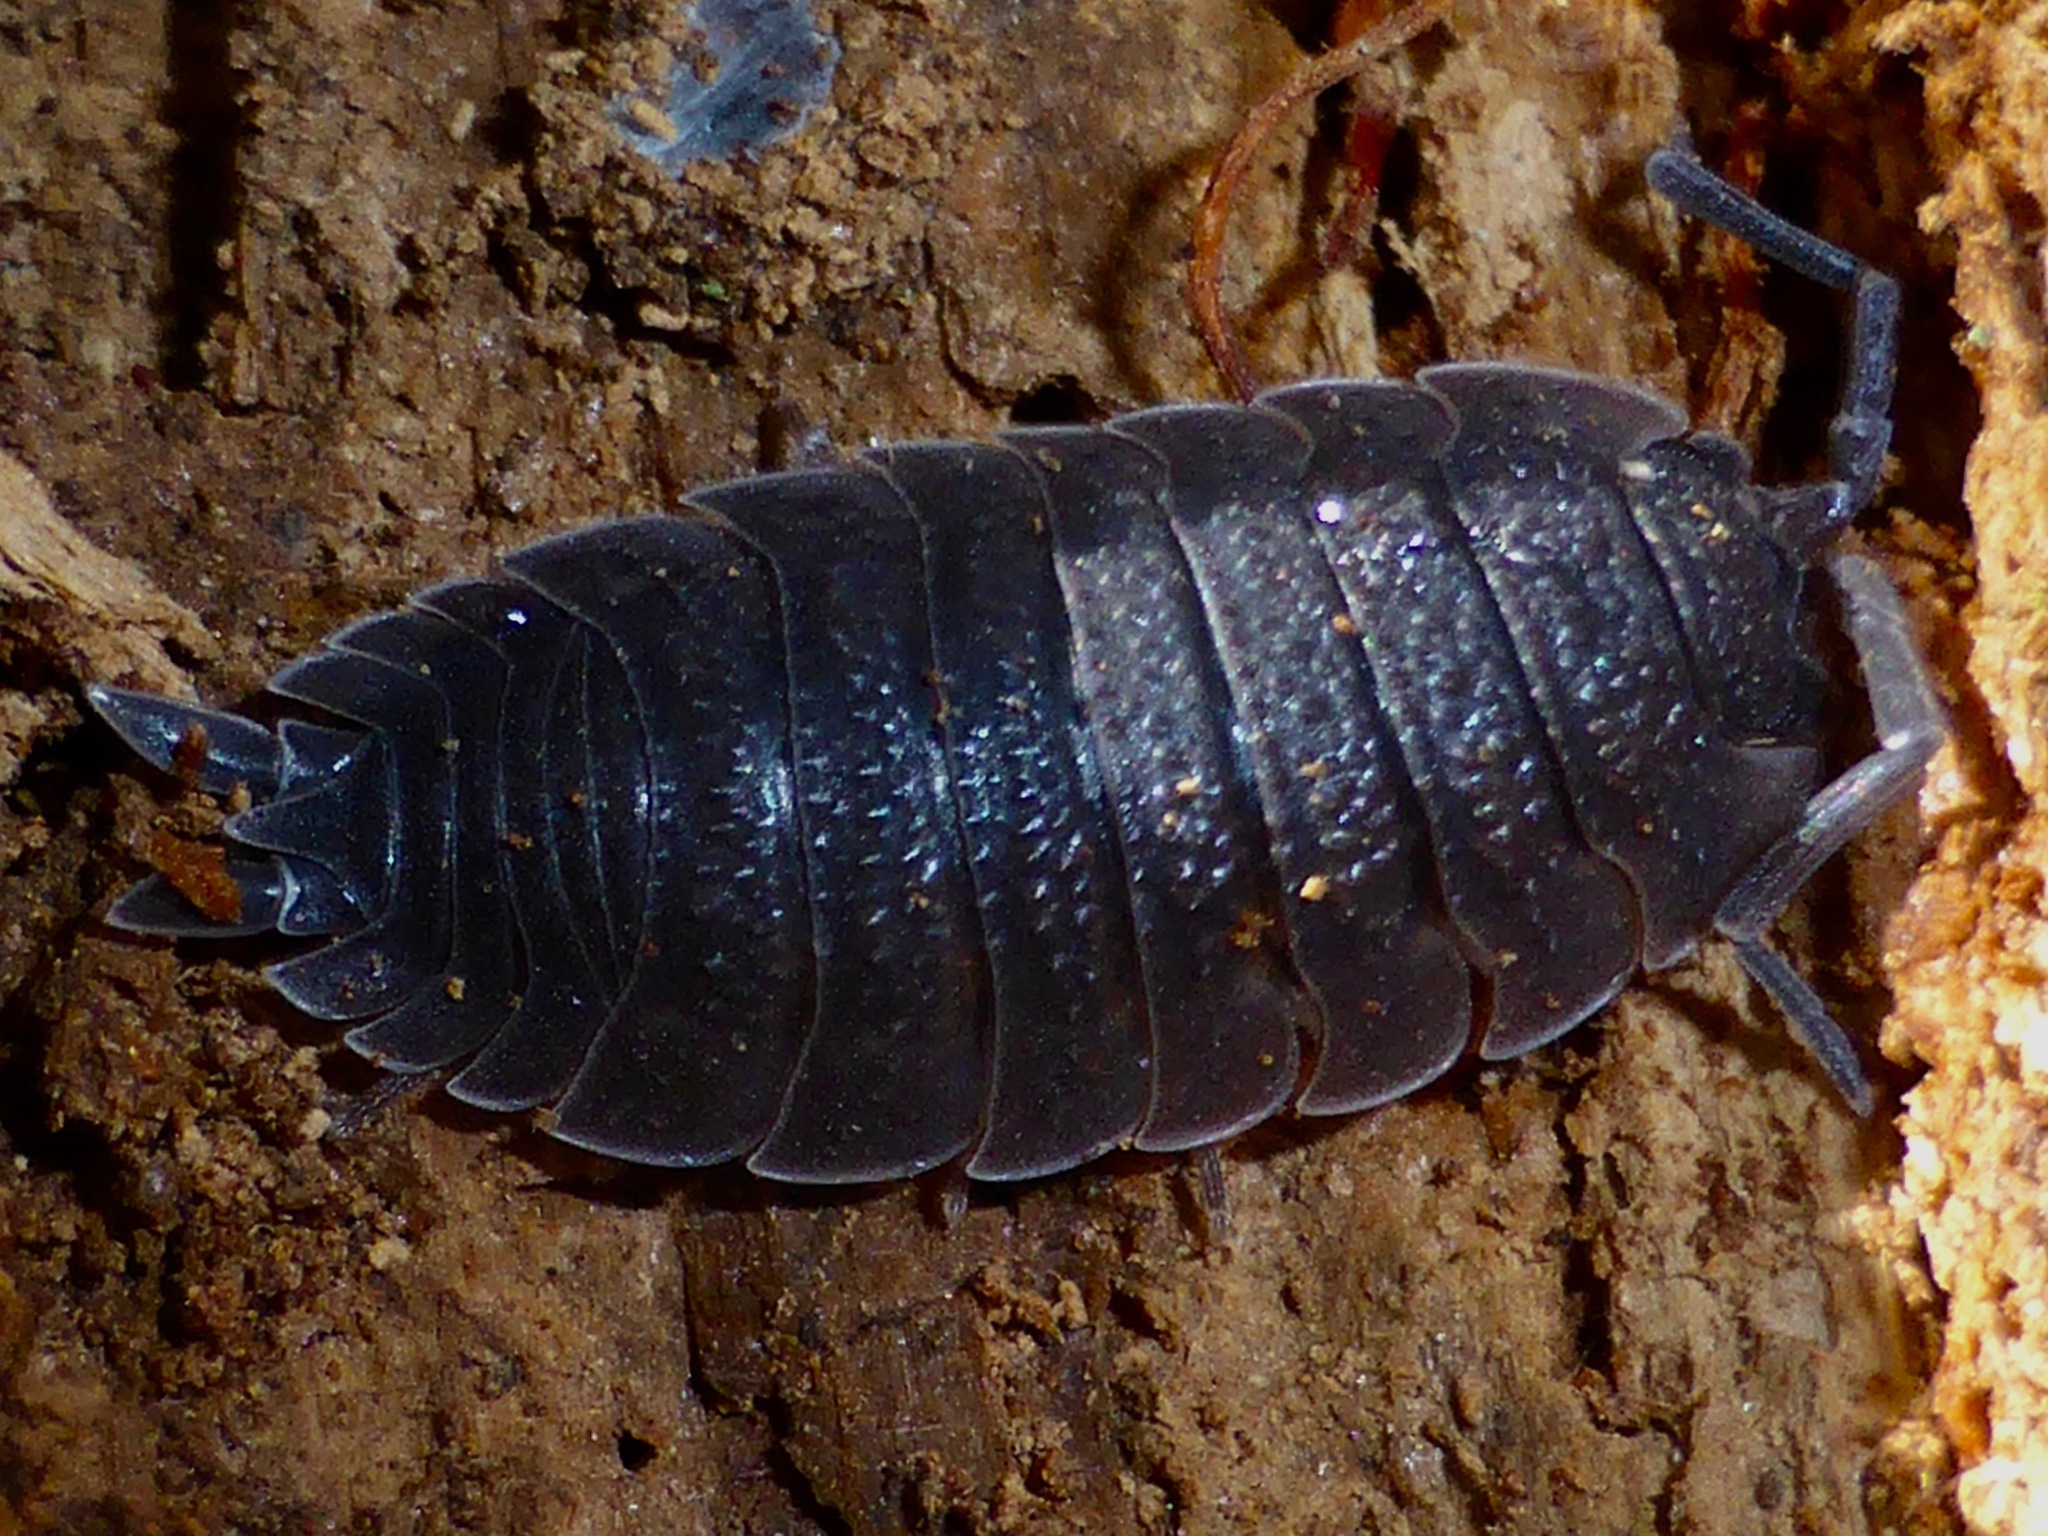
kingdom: Animalia
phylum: Arthropoda
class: Malacostraca
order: Isopoda
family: Porcellionidae
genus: Porcellio
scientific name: Porcellio scaber
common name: Common rough woodlouse
